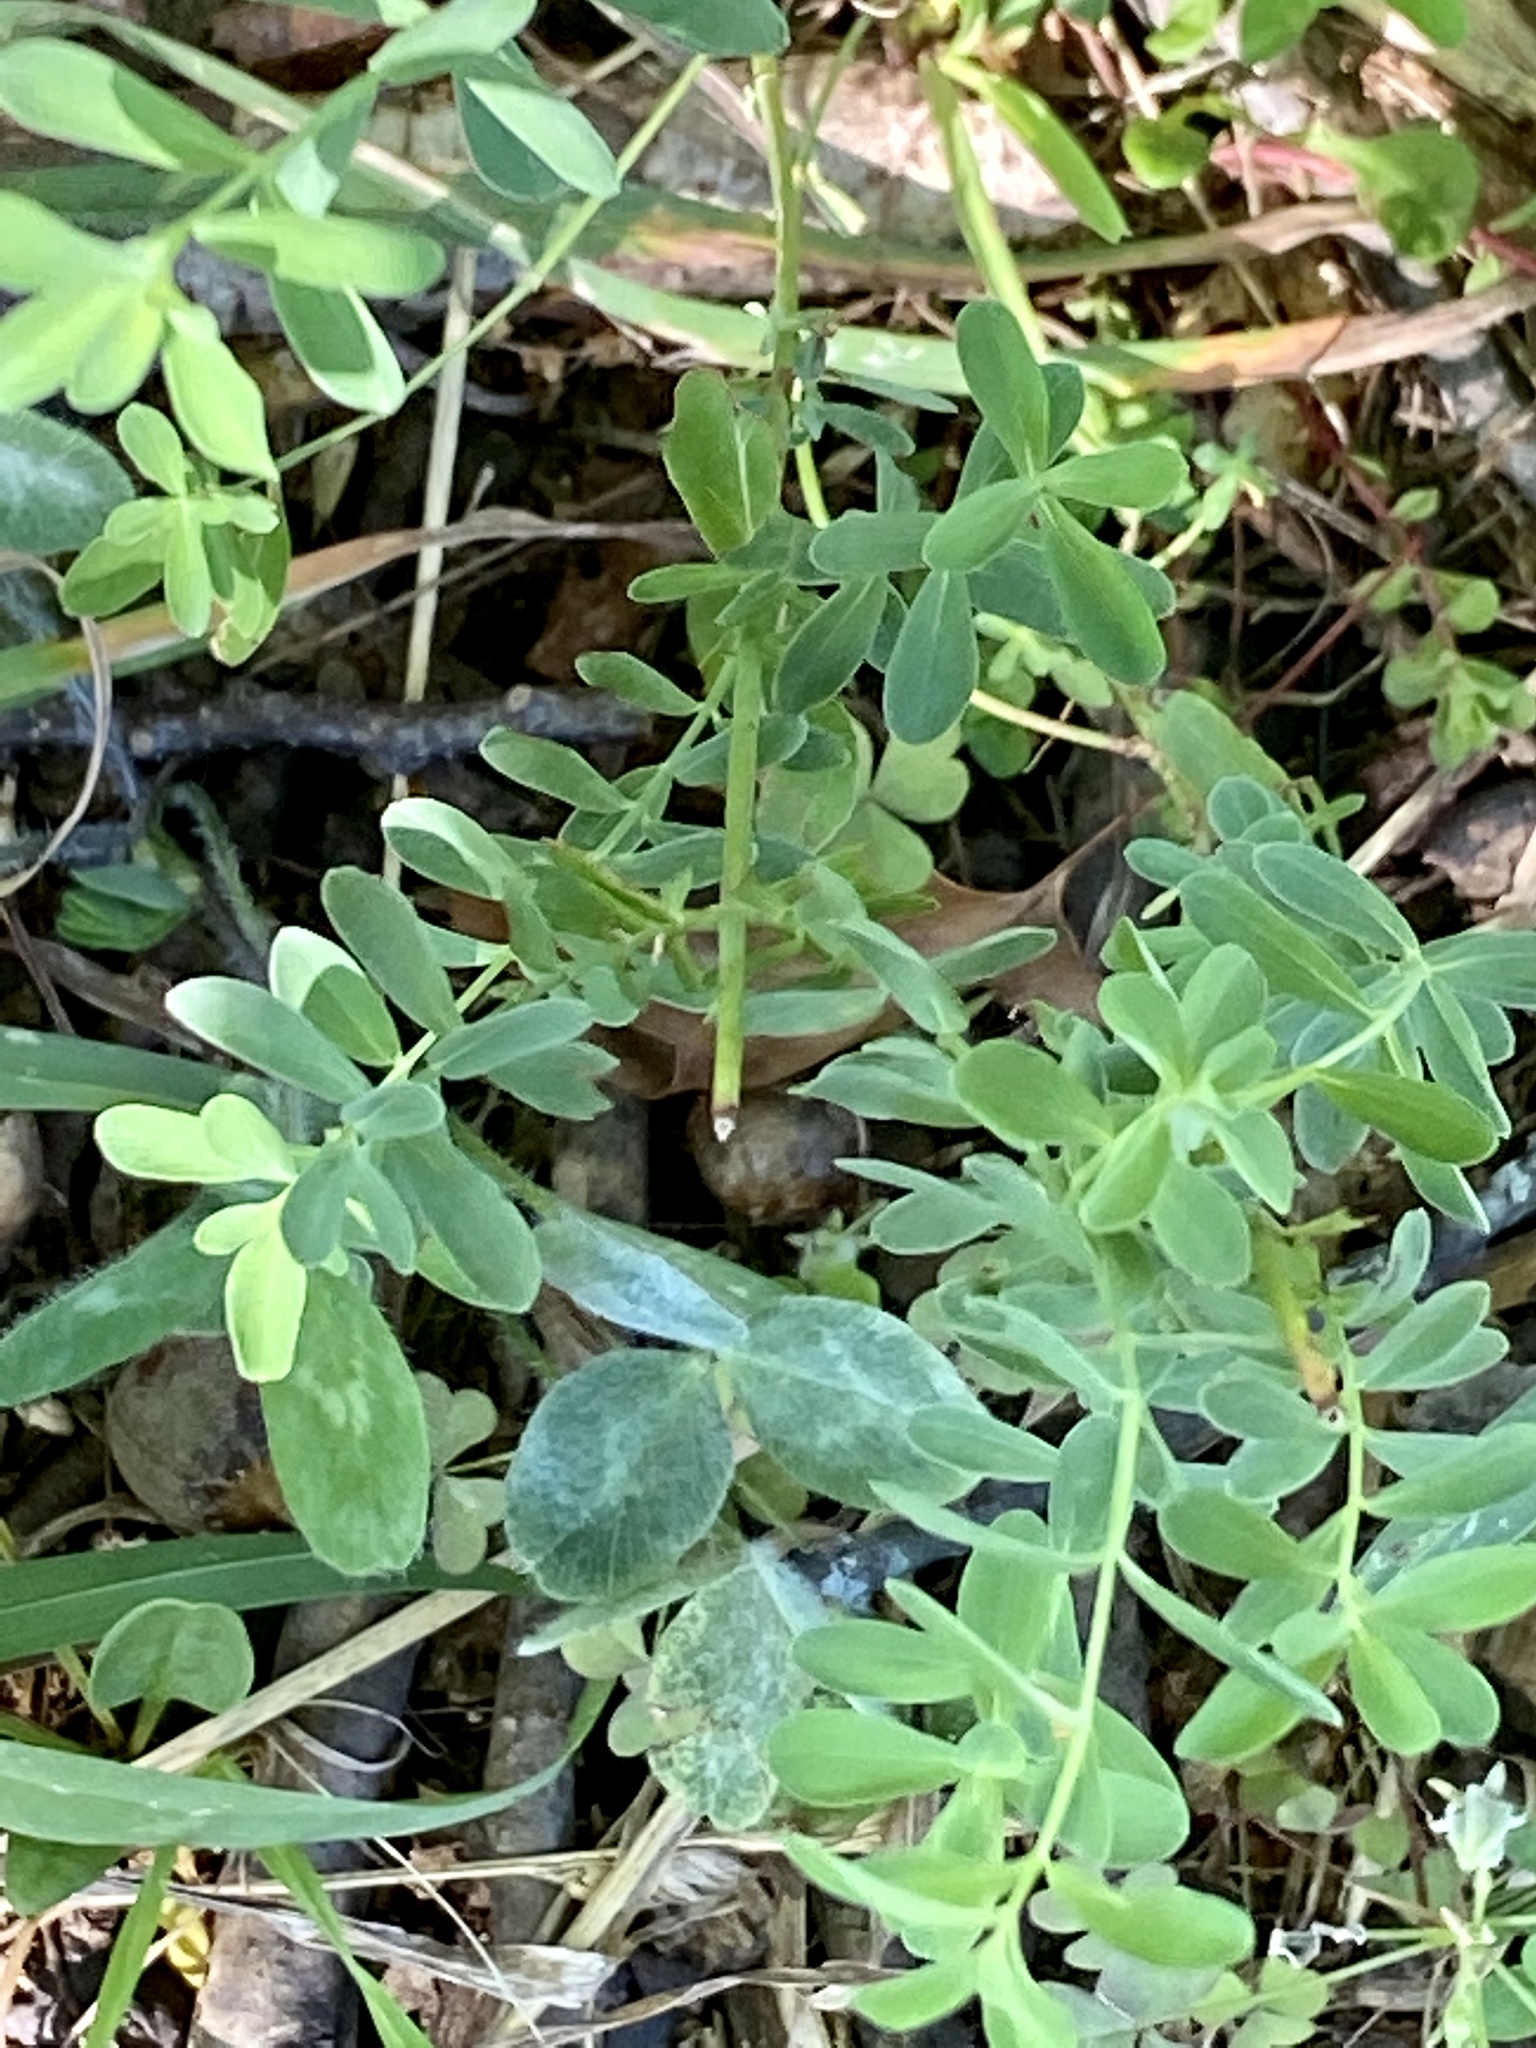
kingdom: Plantae
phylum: Tracheophyta
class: Magnoliopsida
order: Malpighiales
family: Hypericaceae
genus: Hypericum
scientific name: Hypericum perforatum
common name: Common st. johnswort
